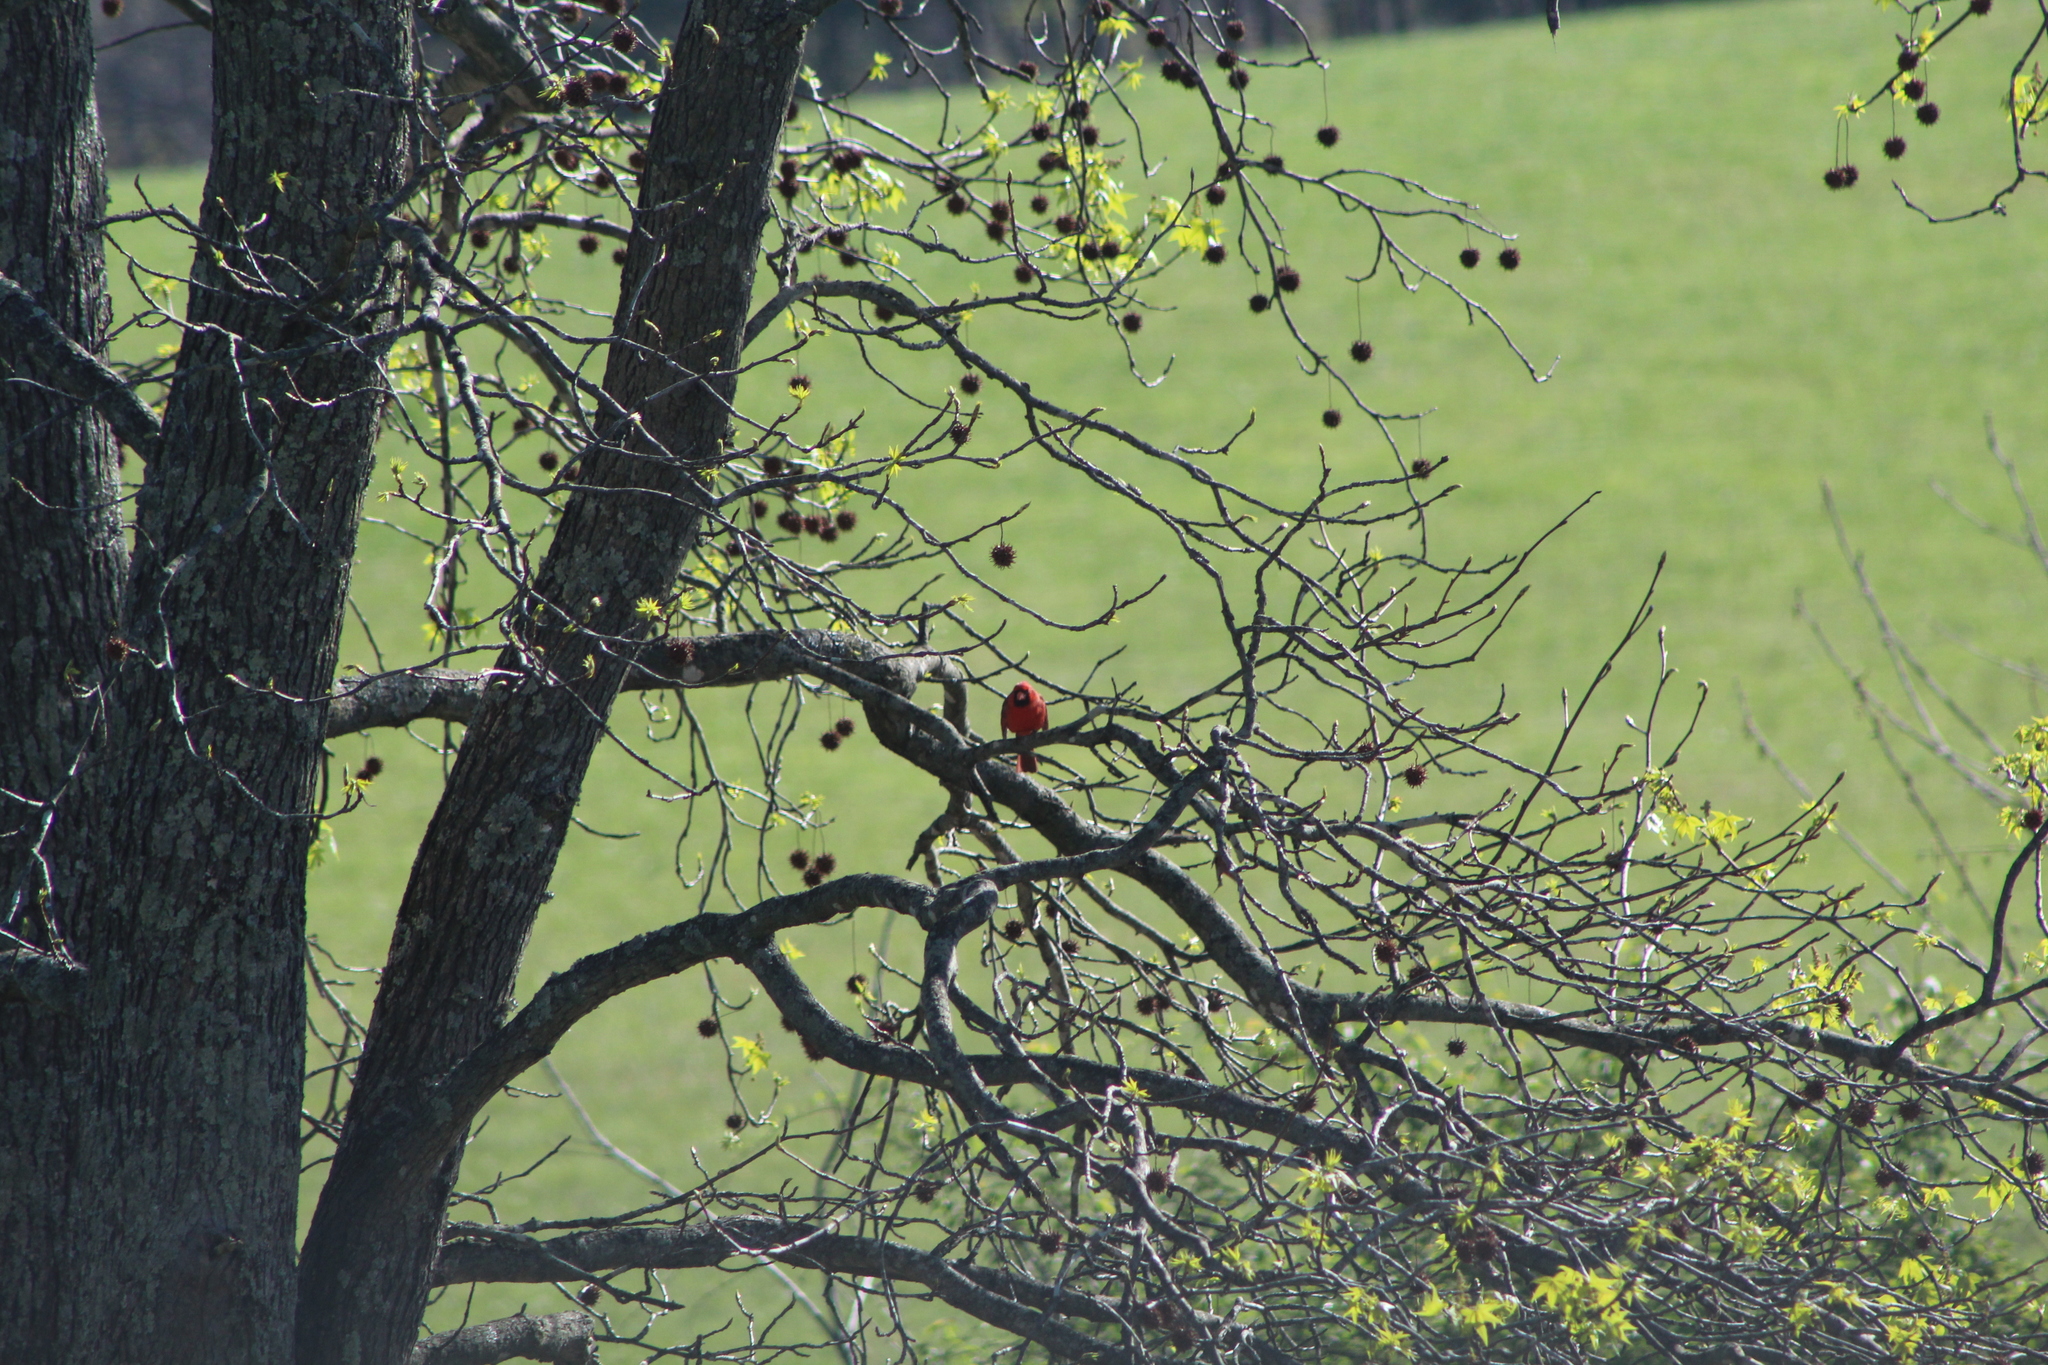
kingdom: Animalia
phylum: Chordata
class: Aves
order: Passeriformes
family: Cardinalidae
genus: Cardinalis
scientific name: Cardinalis cardinalis
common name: Northern cardinal
